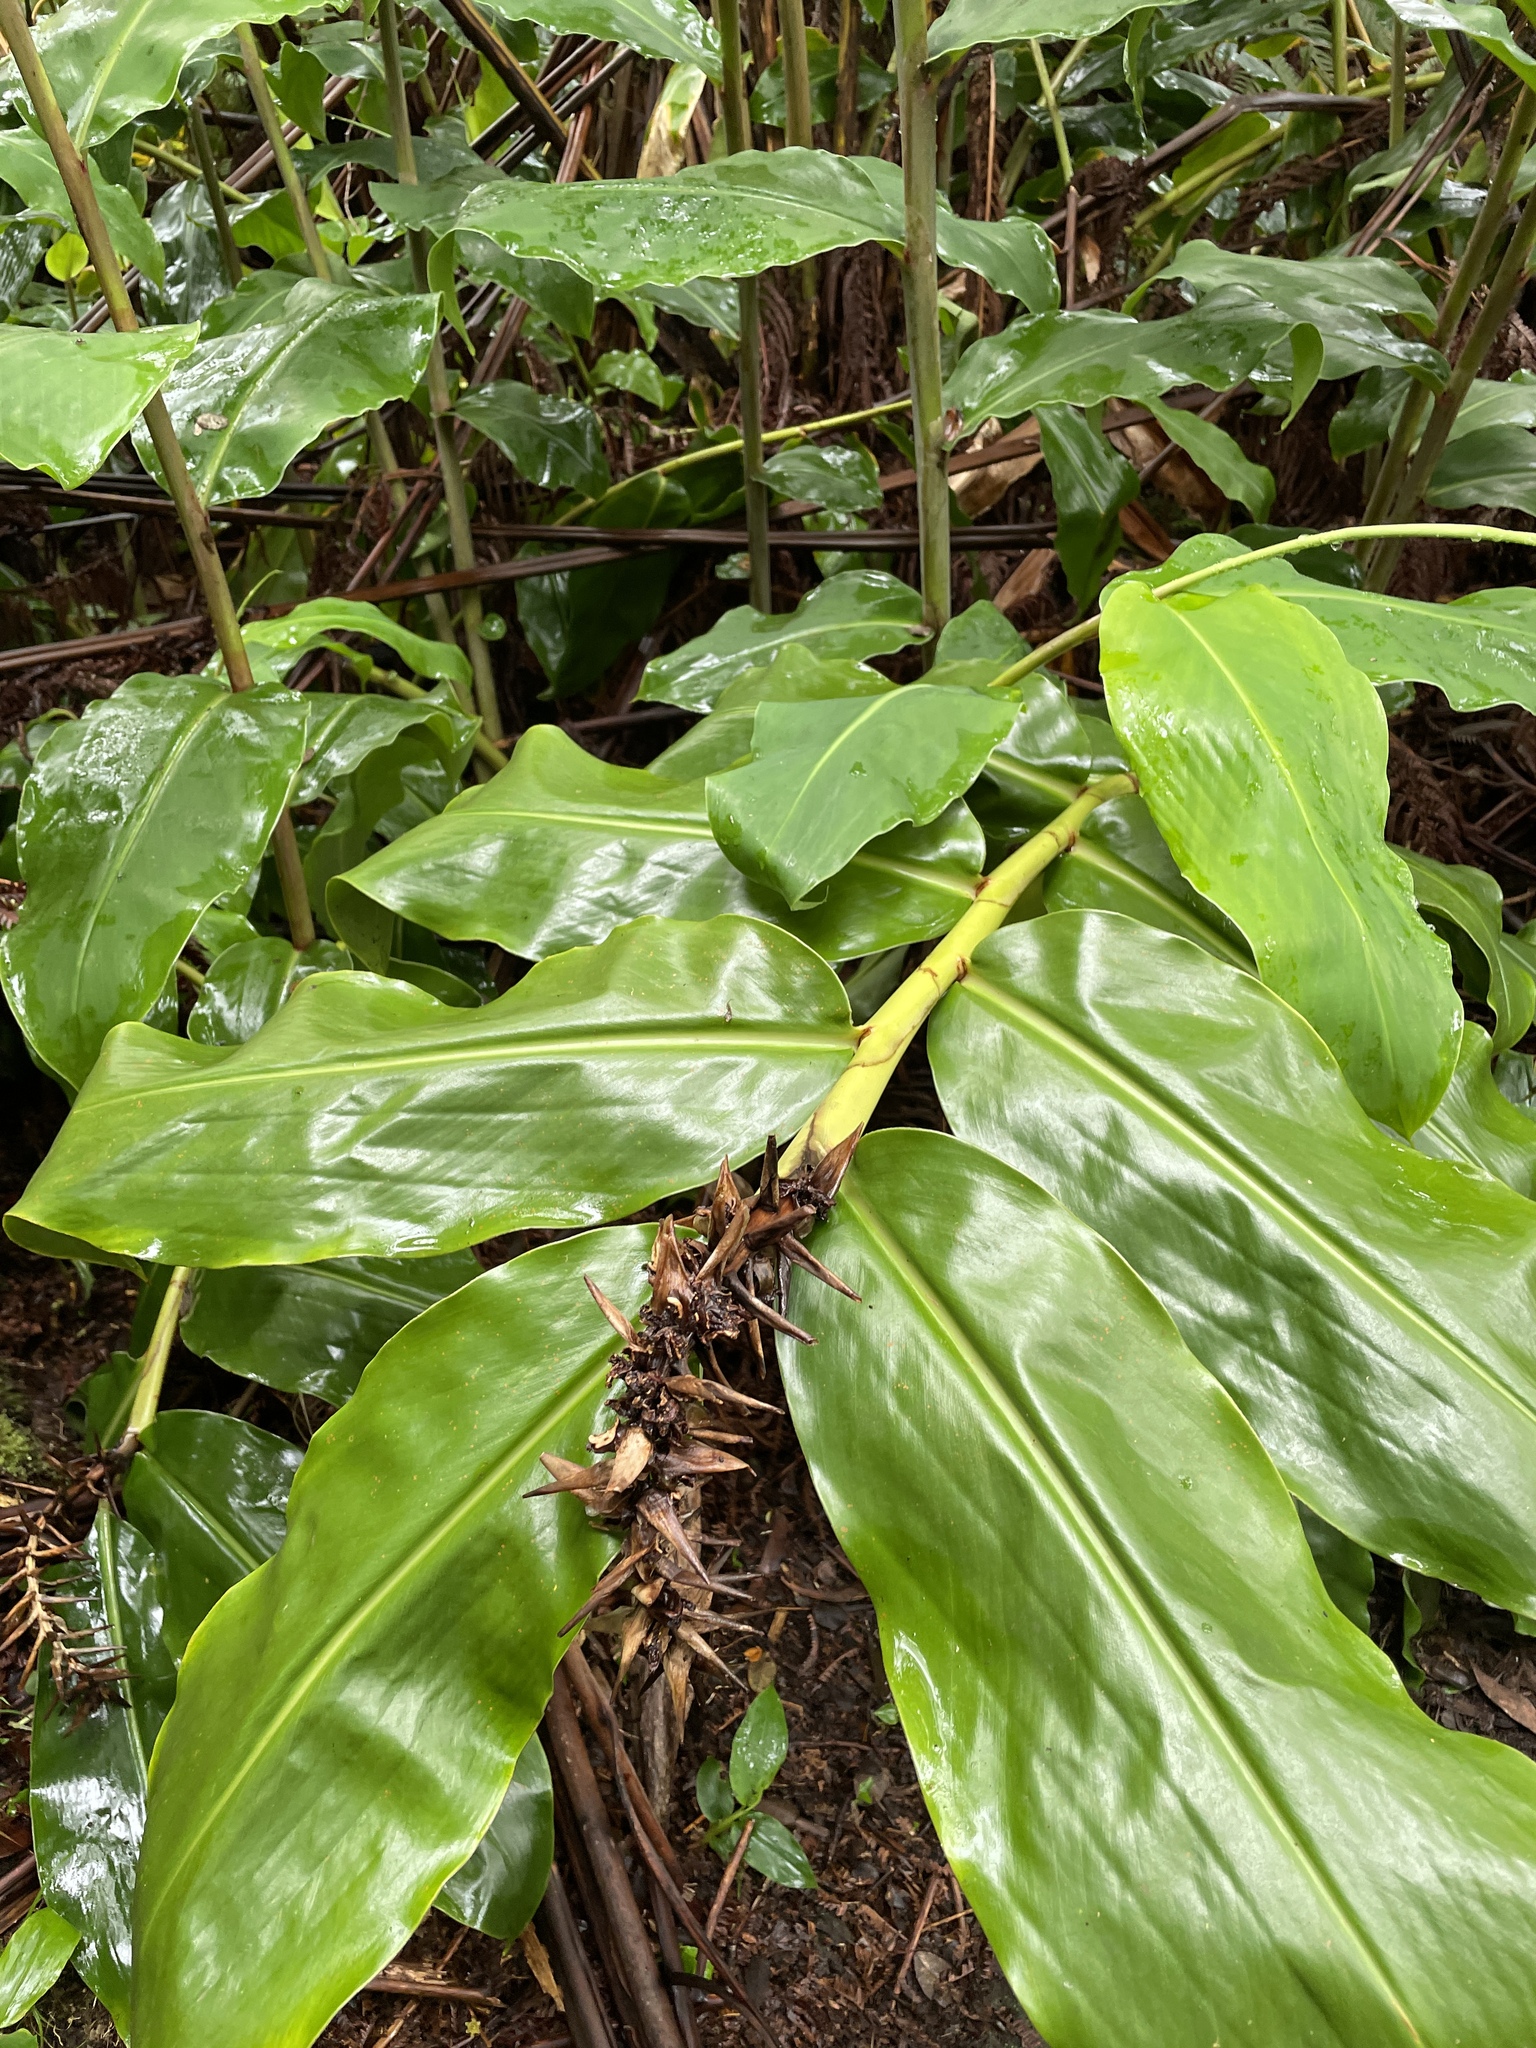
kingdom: Plantae
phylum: Tracheophyta
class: Liliopsida
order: Zingiberales
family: Zingiberaceae
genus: Hedychium
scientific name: Hedychium gardnerianum
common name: Himalayan ginger
